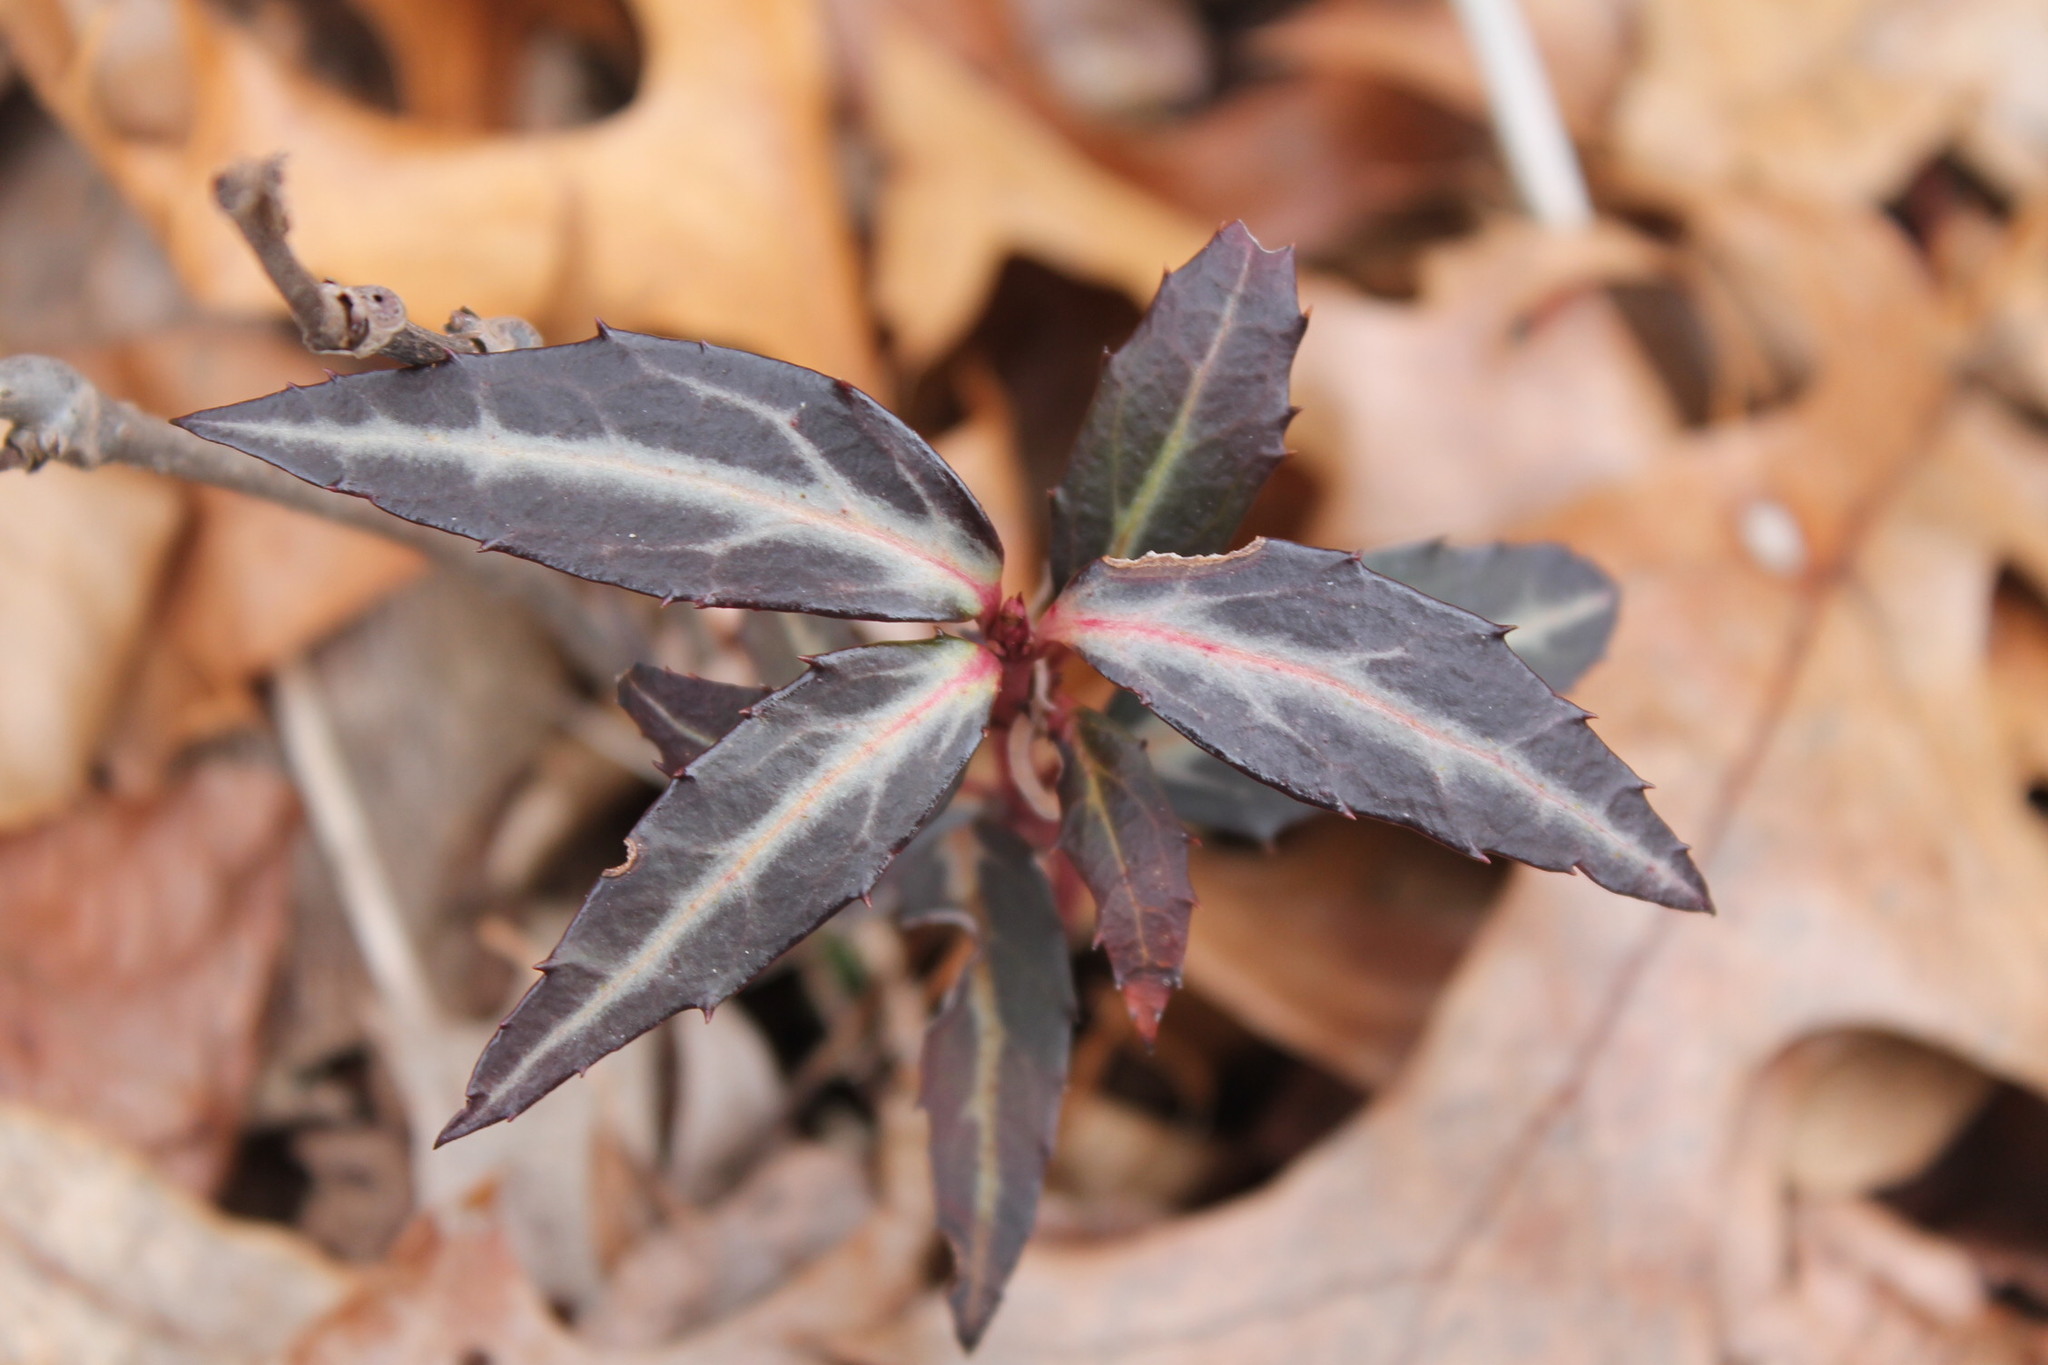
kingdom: Plantae
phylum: Tracheophyta
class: Magnoliopsida
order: Ericales
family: Ericaceae
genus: Chimaphila
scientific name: Chimaphila maculata
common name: Spotted pipsissewa
